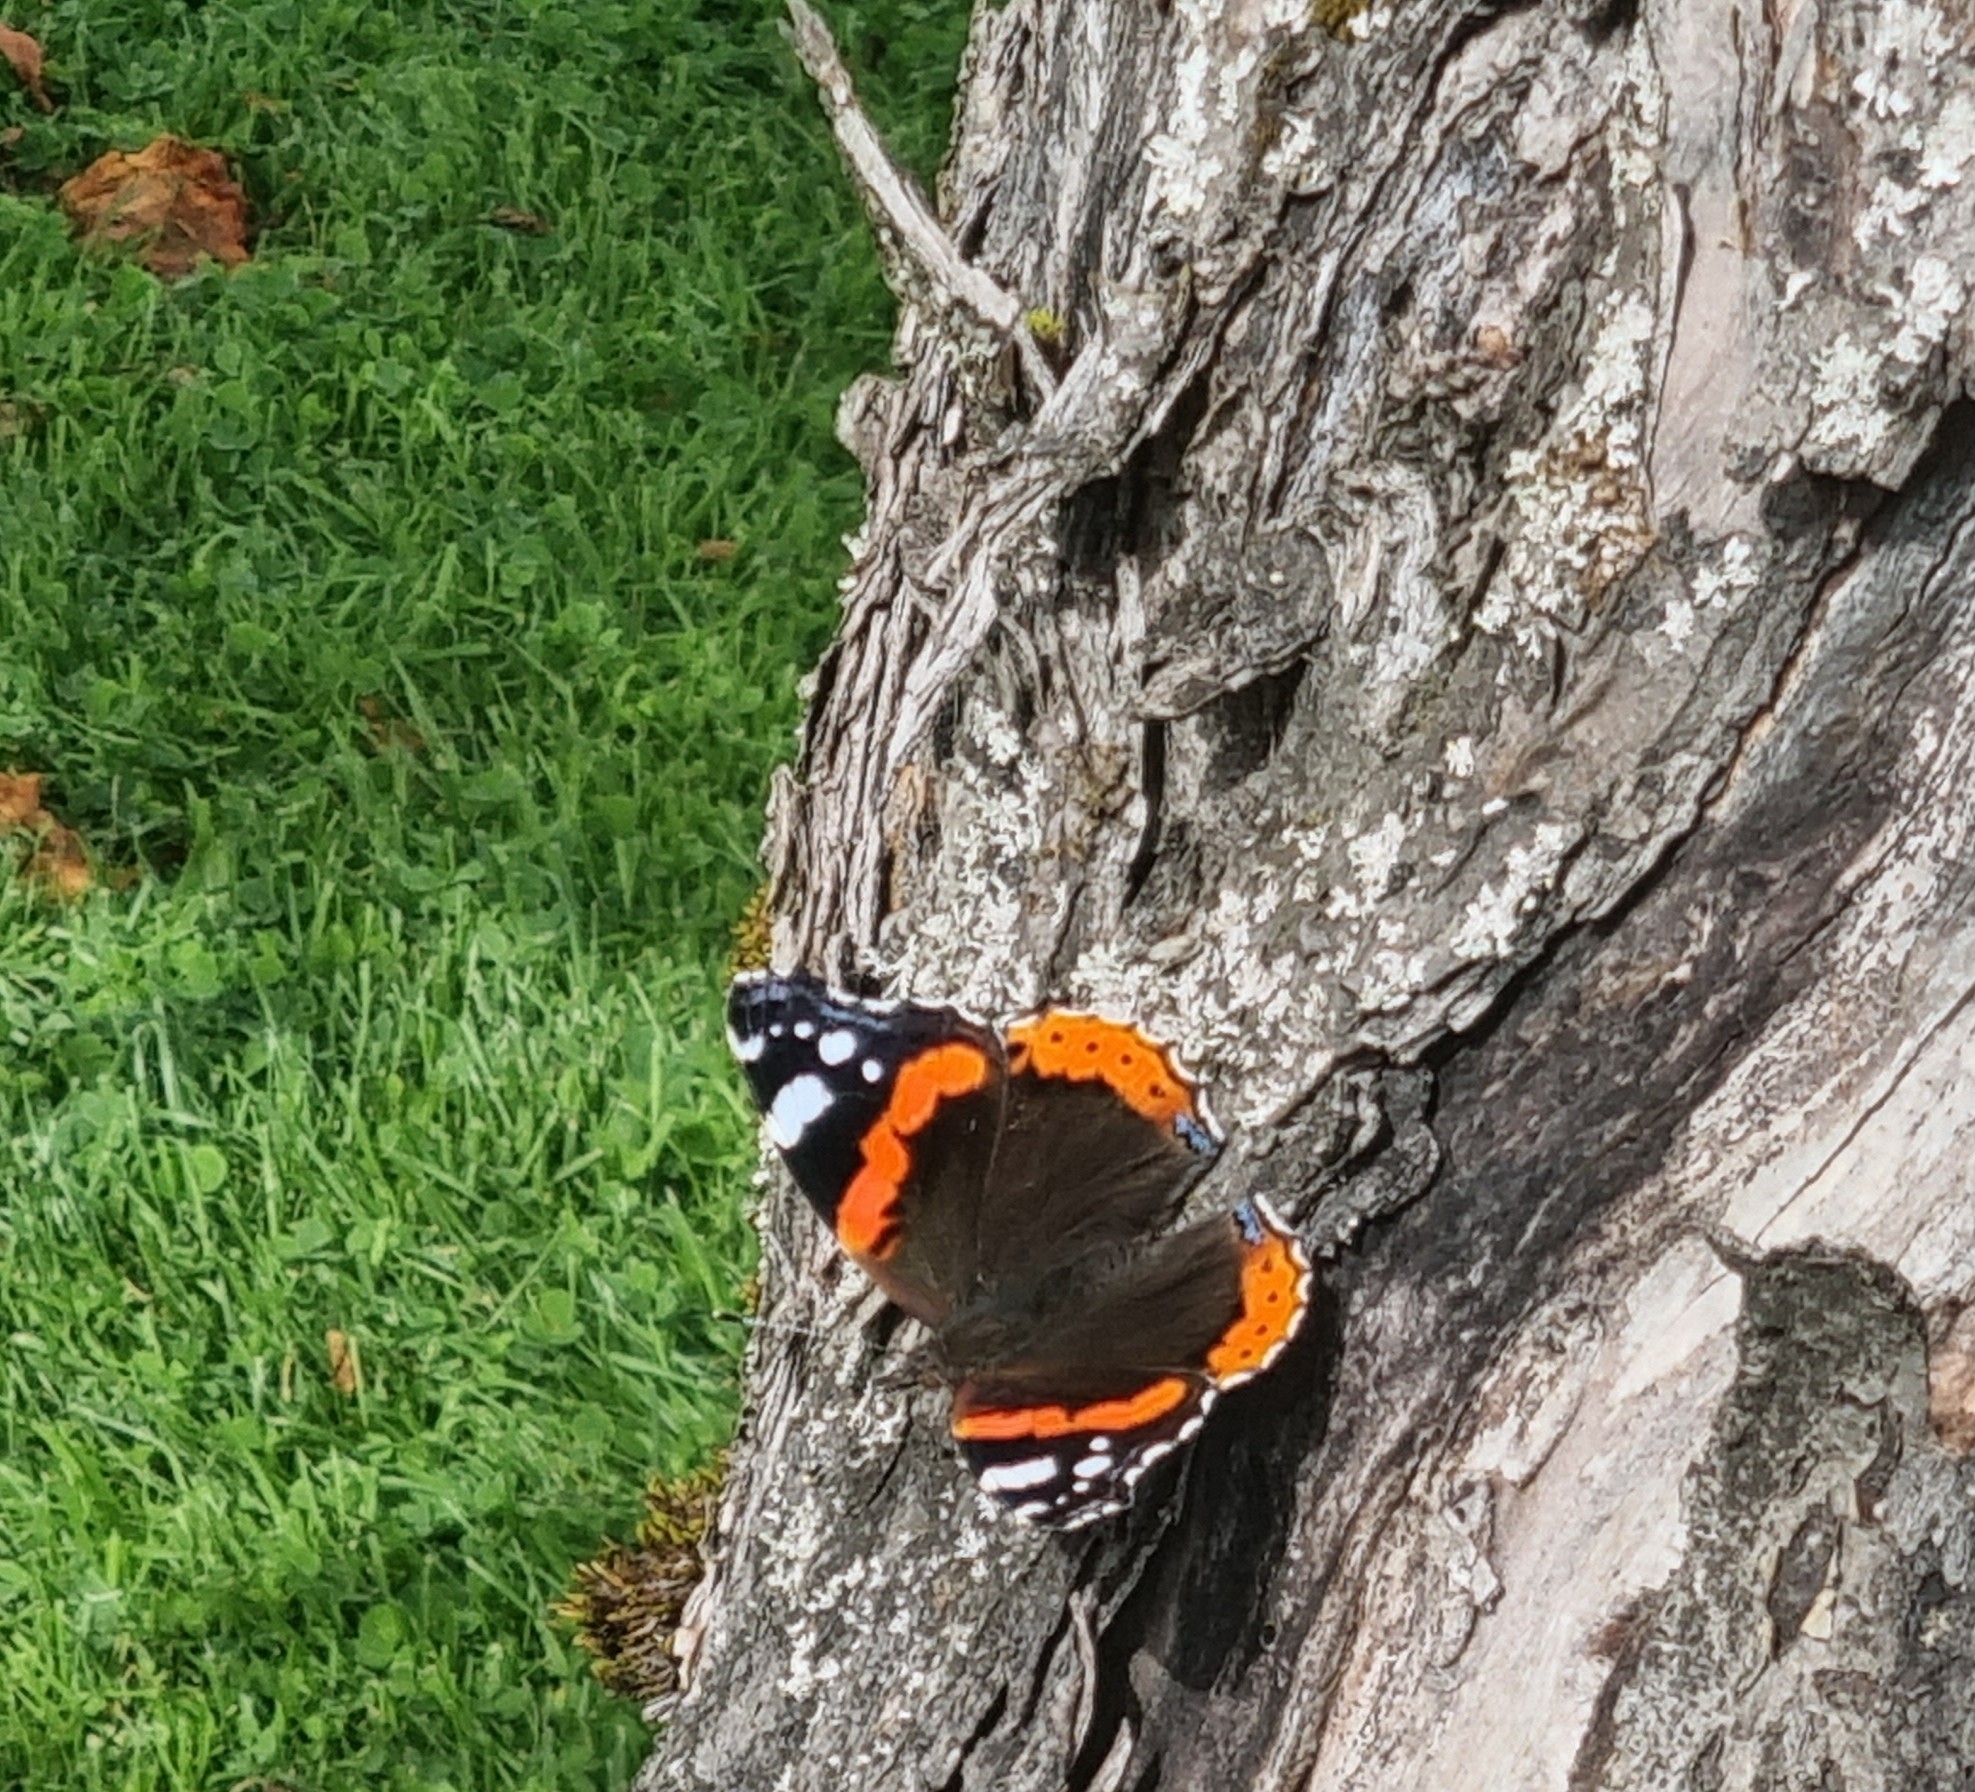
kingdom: Animalia
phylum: Arthropoda
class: Insecta
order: Lepidoptera
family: Nymphalidae
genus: Vanessa
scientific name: Vanessa atalanta
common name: Red admiral
